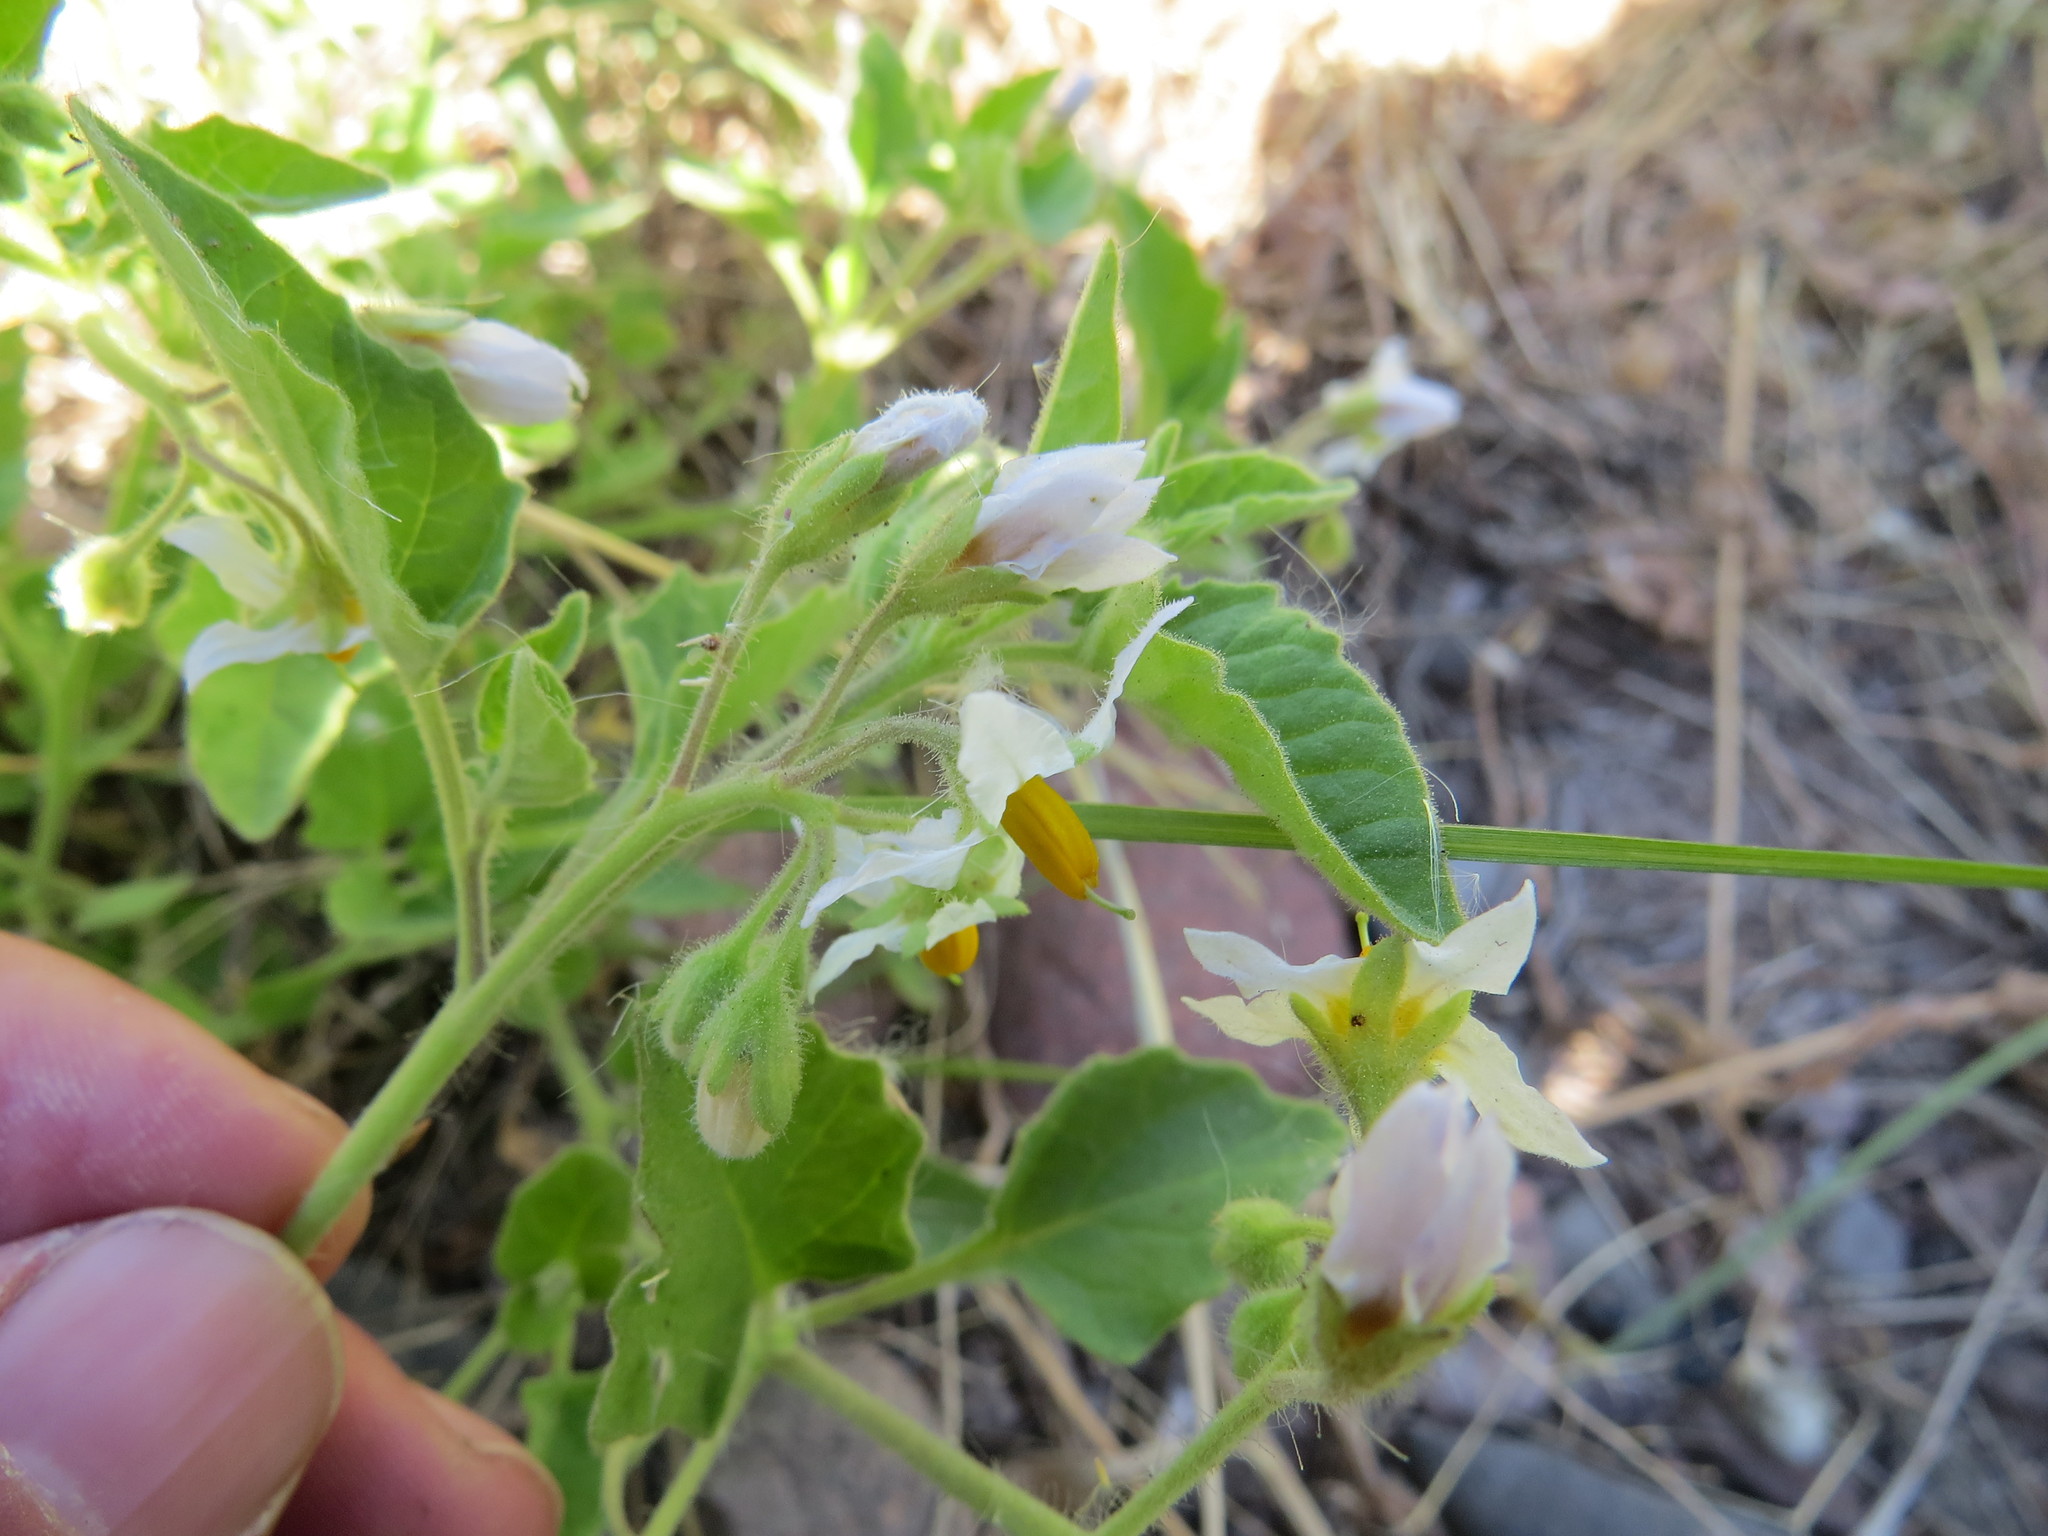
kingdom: Plantae
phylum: Tracheophyta
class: Magnoliopsida
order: Solanales
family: Solanaceae
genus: Solanum
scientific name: Solanum tweedianum
